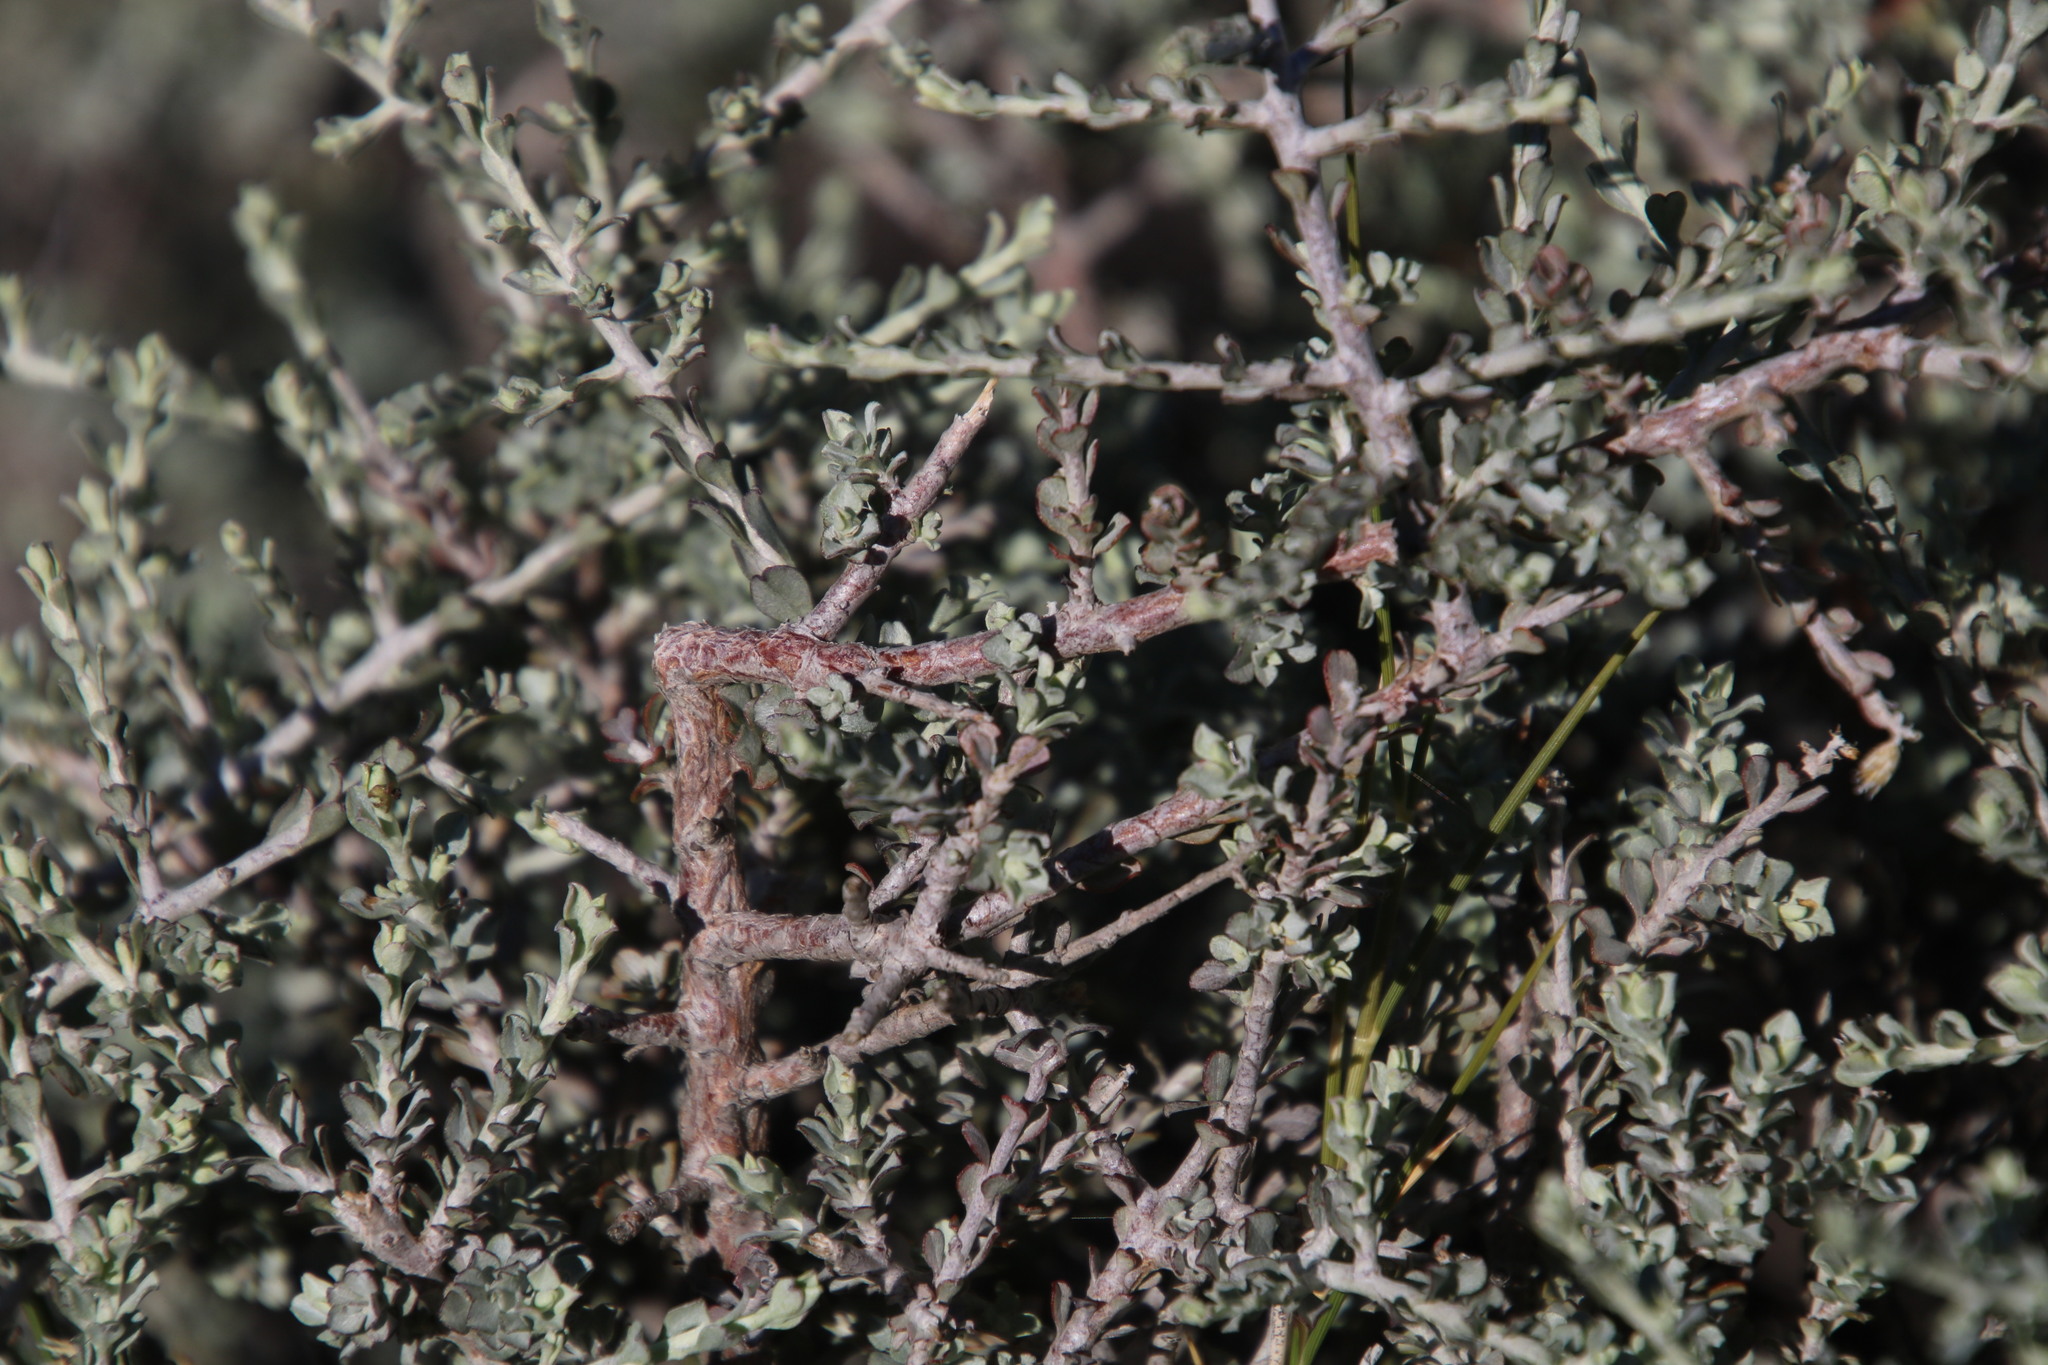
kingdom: Plantae
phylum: Tracheophyta
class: Magnoliopsida
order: Asterales
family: Asteraceae
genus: Helichrysum
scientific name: Helichrysum pentzioides
